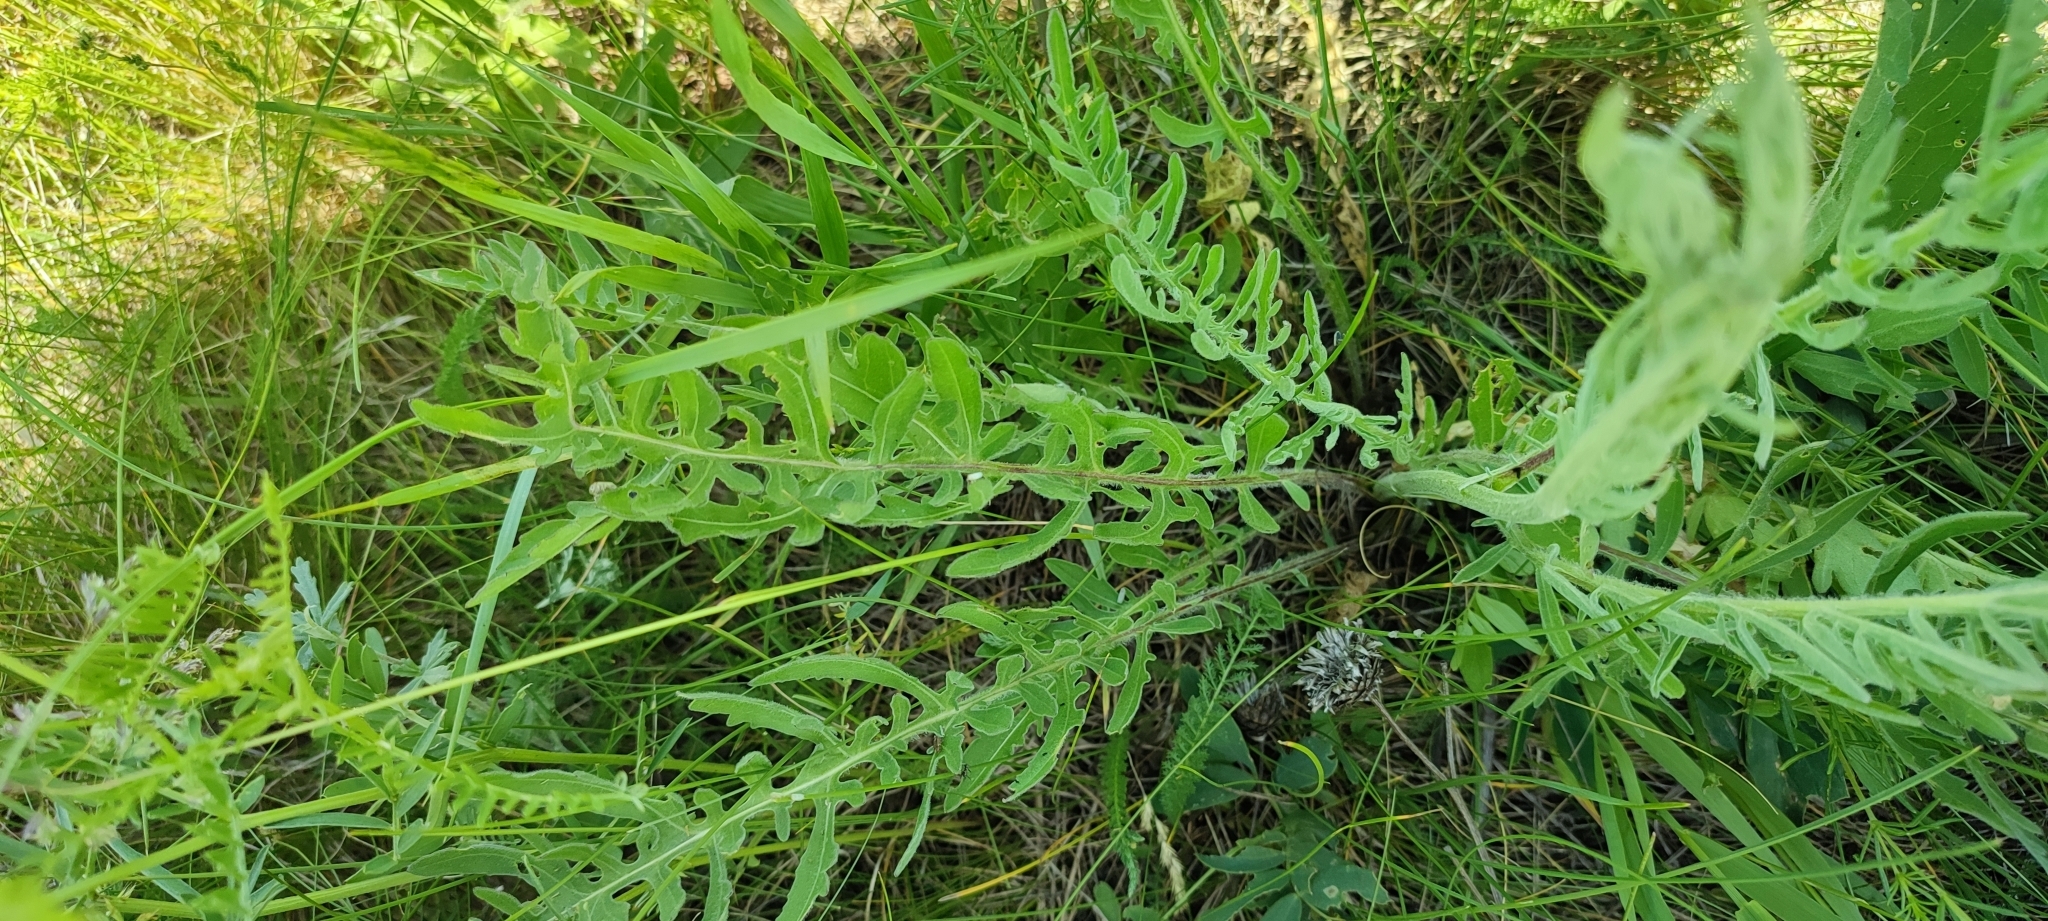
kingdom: Plantae
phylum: Tracheophyta
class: Magnoliopsida
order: Asterales
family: Asteraceae
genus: Centaurea
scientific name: Centaurea scabiosa
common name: Greater knapweed
